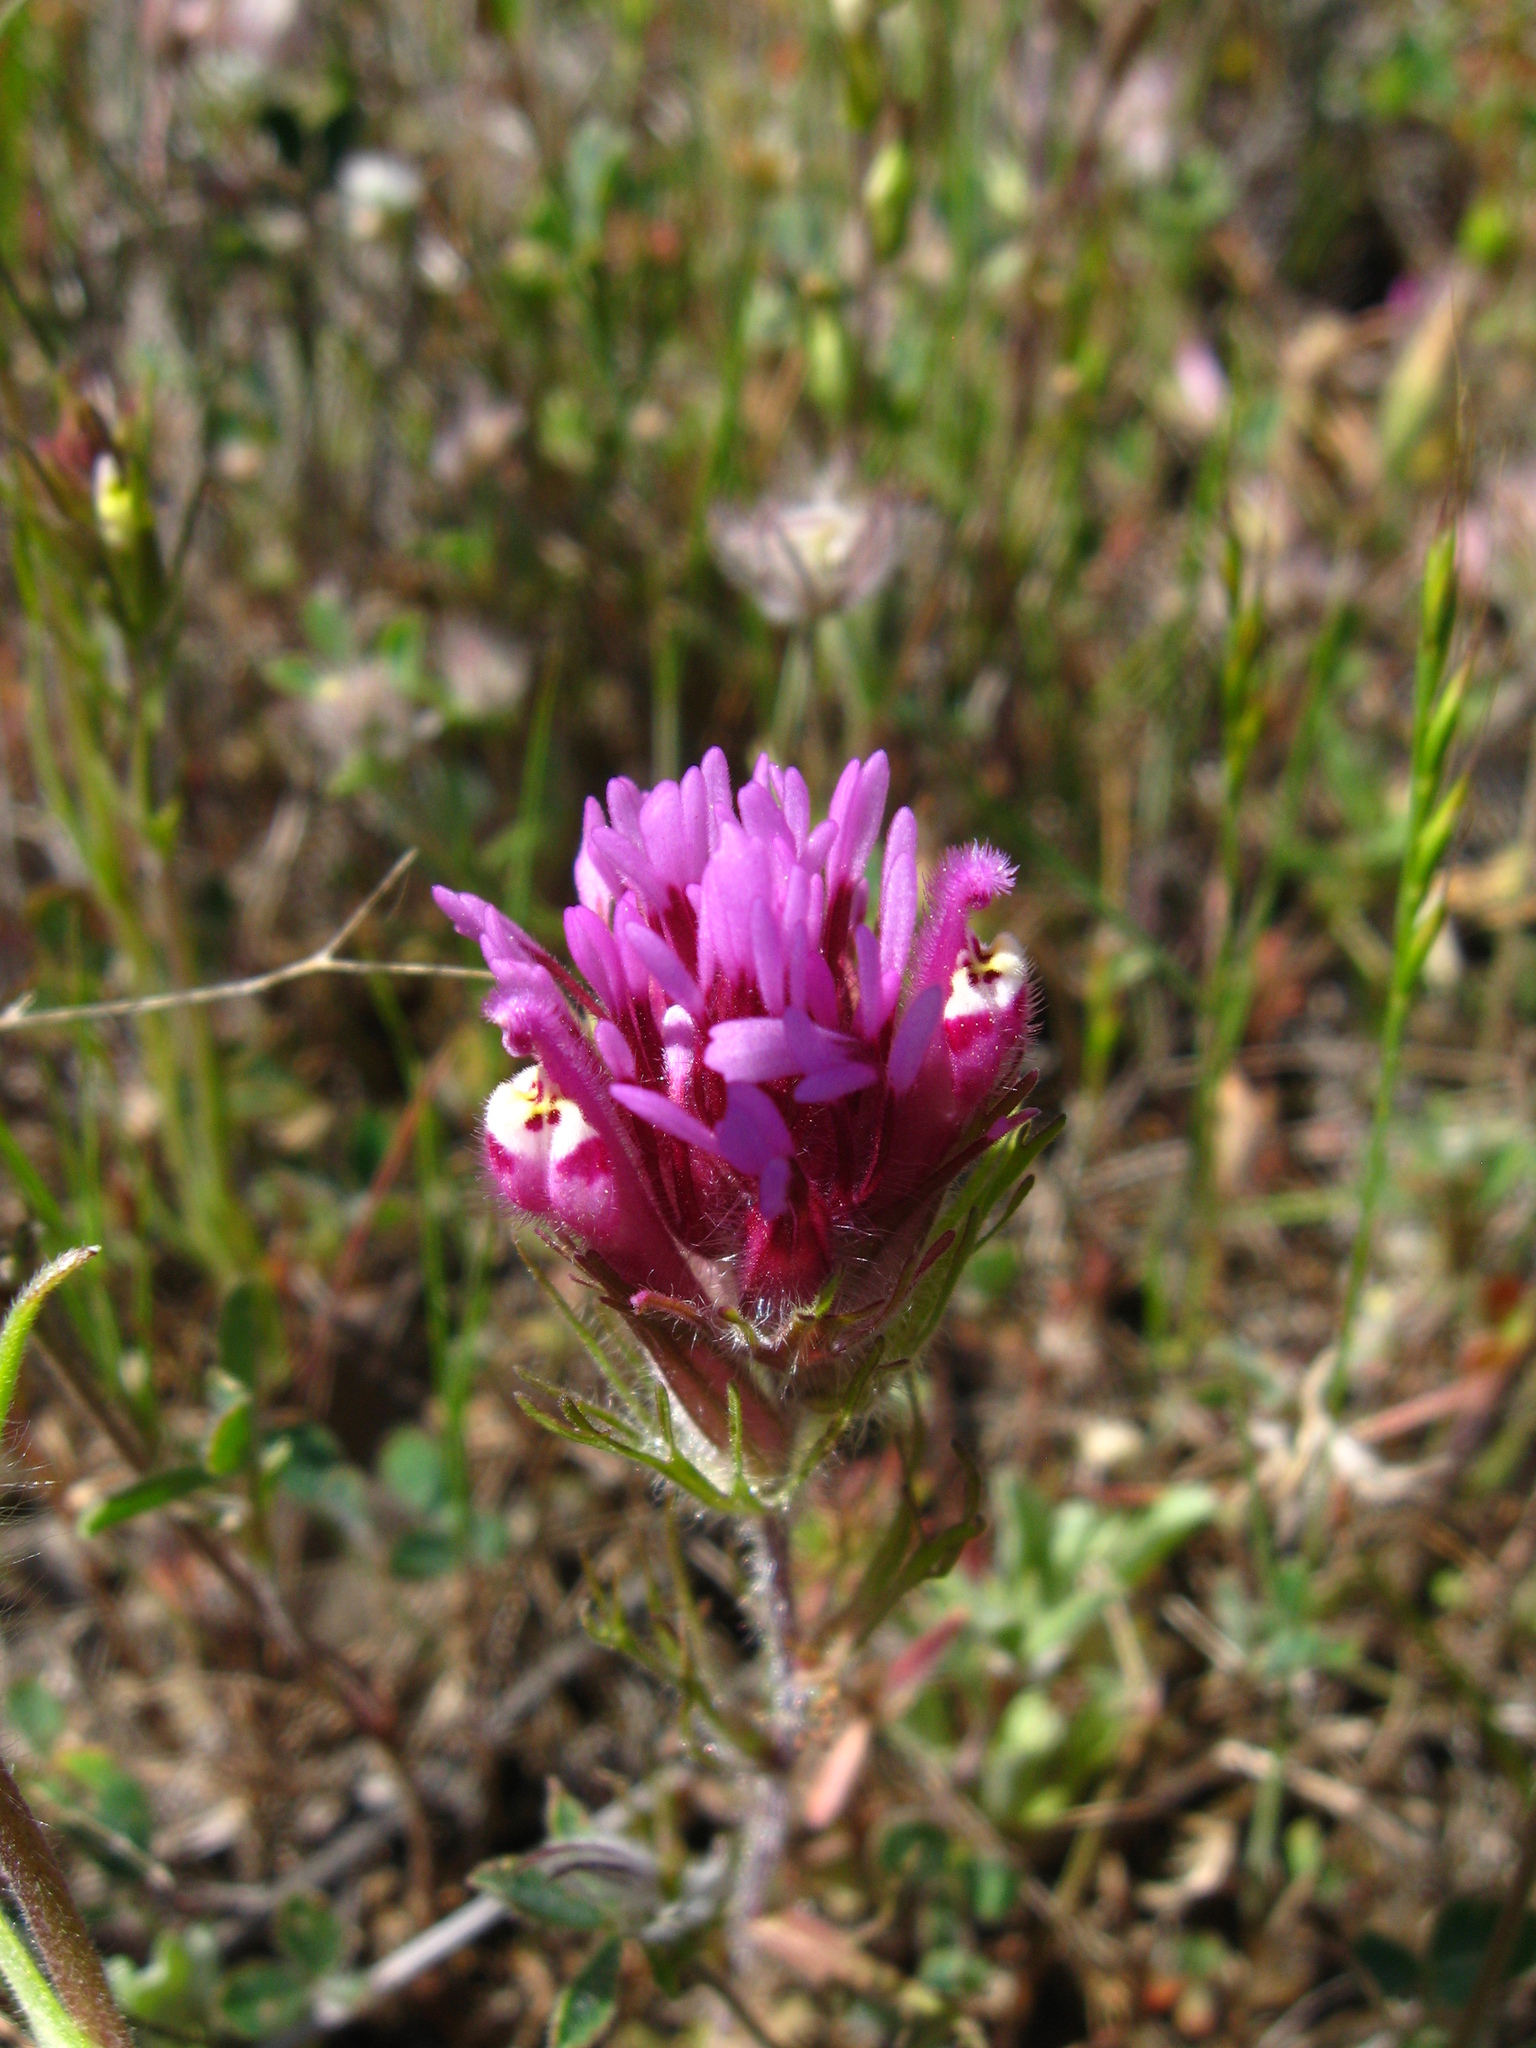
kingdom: Plantae
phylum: Tracheophyta
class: Magnoliopsida
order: Lamiales
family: Orobanchaceae
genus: Castilleja
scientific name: Castilleja exserta
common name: Purple owl-clover
